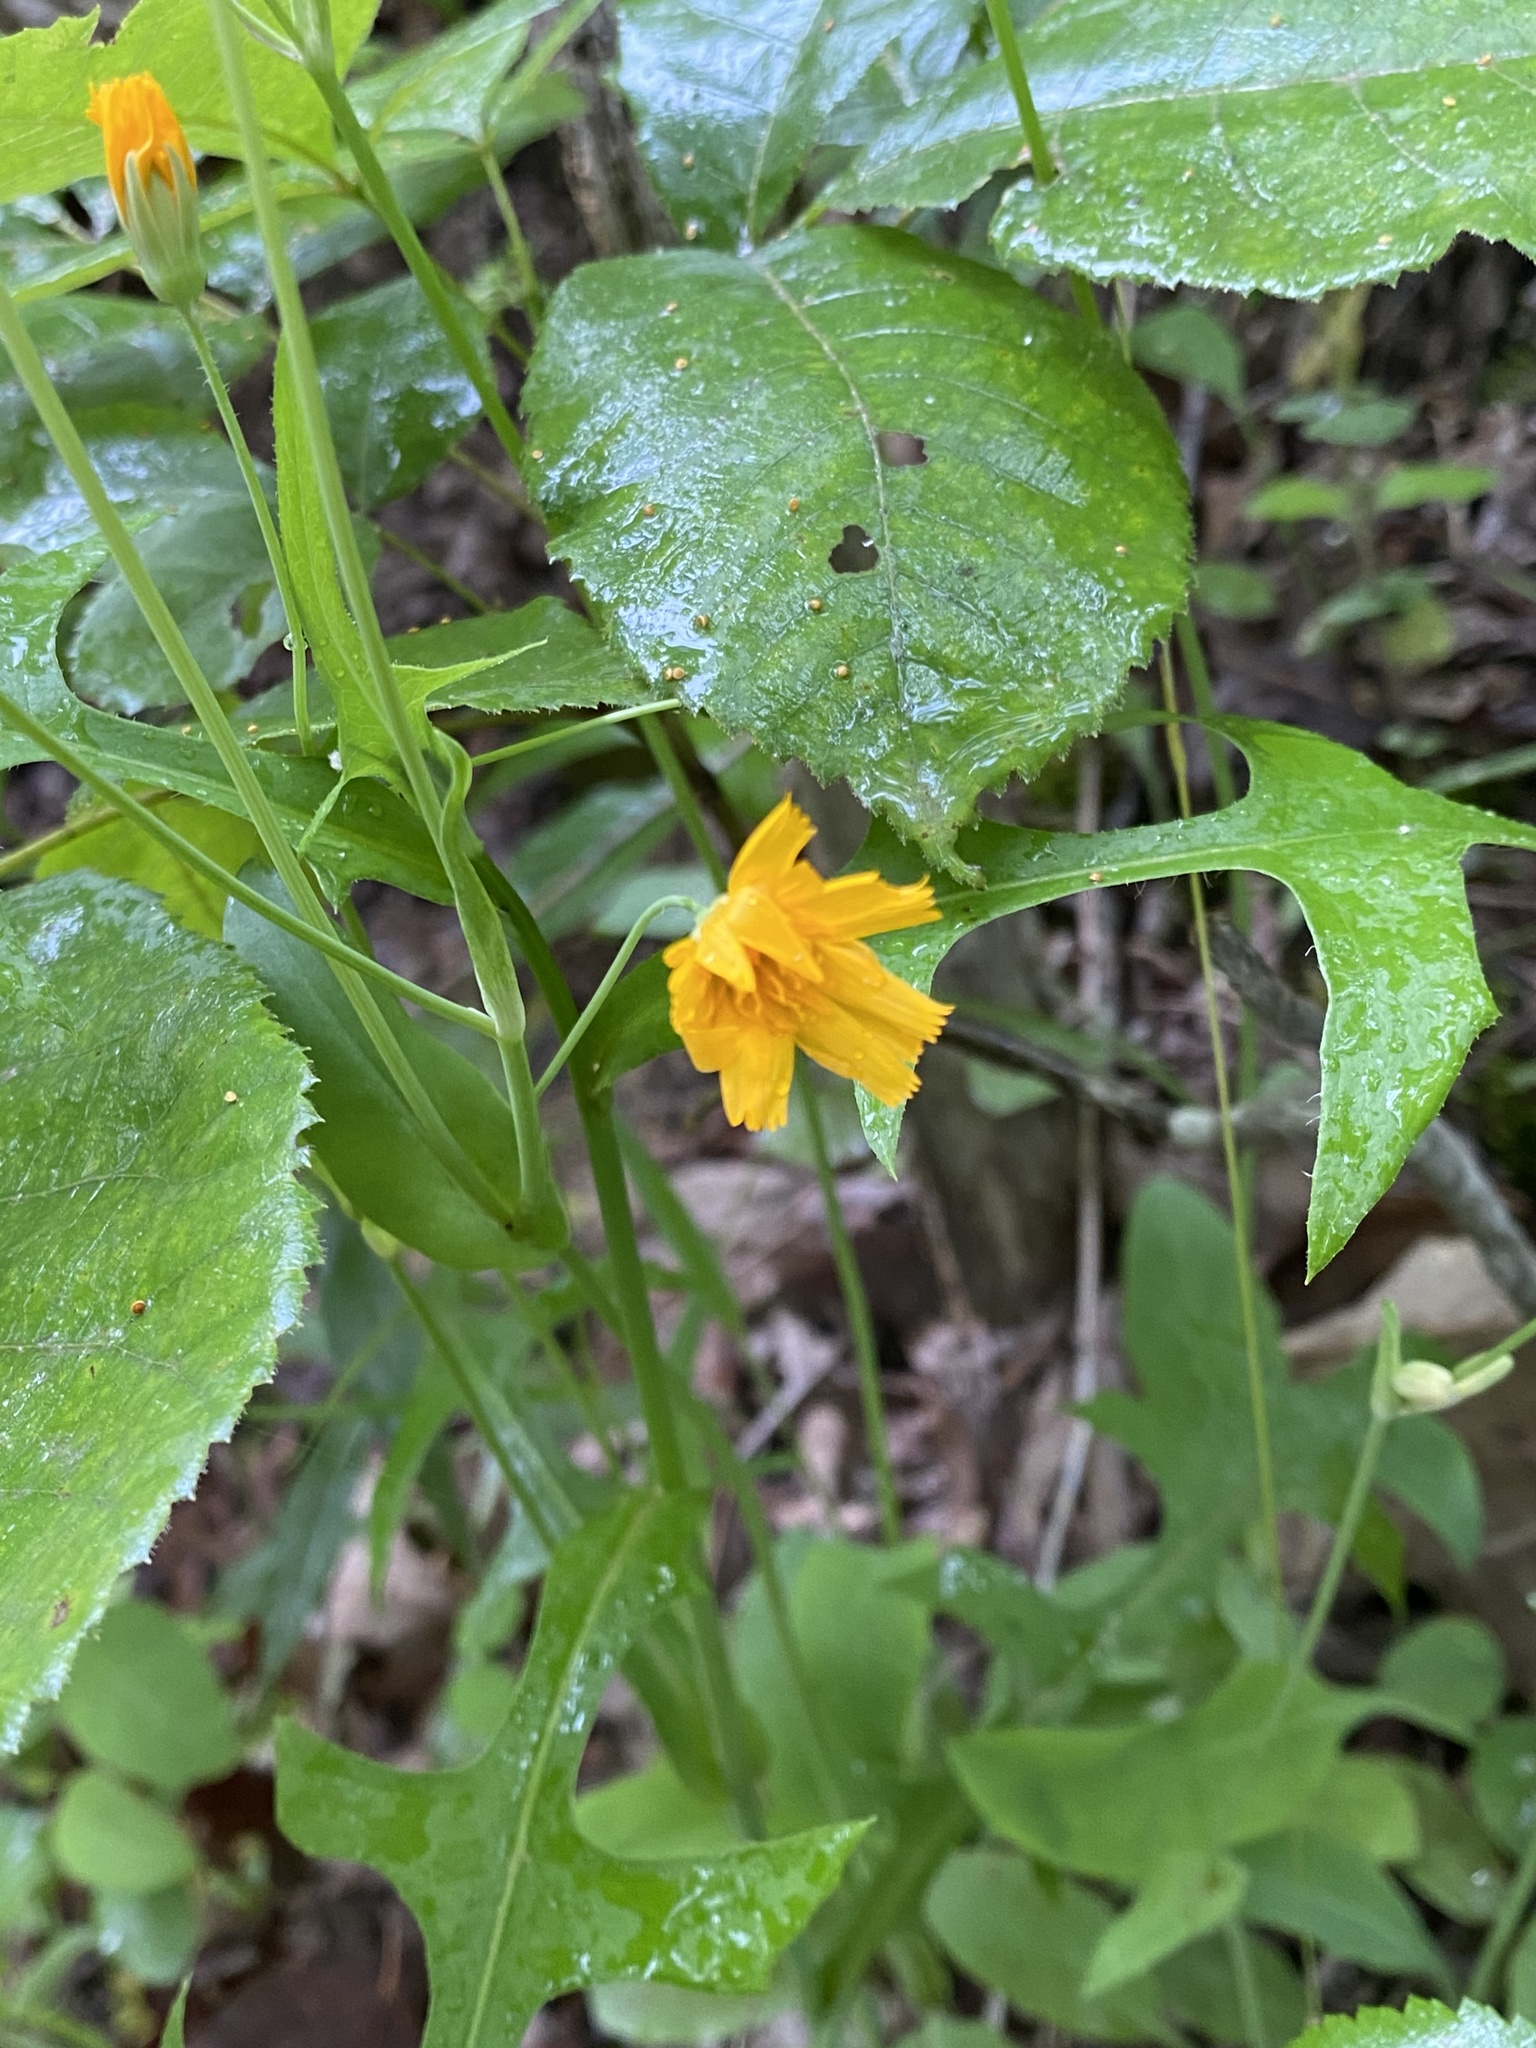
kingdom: Plantae
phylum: Tracheophyta
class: Magnoliopsida
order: Asterales
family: Asteraceae
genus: Krigia
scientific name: Krigia biflora
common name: Orange dwarf-dandelion
